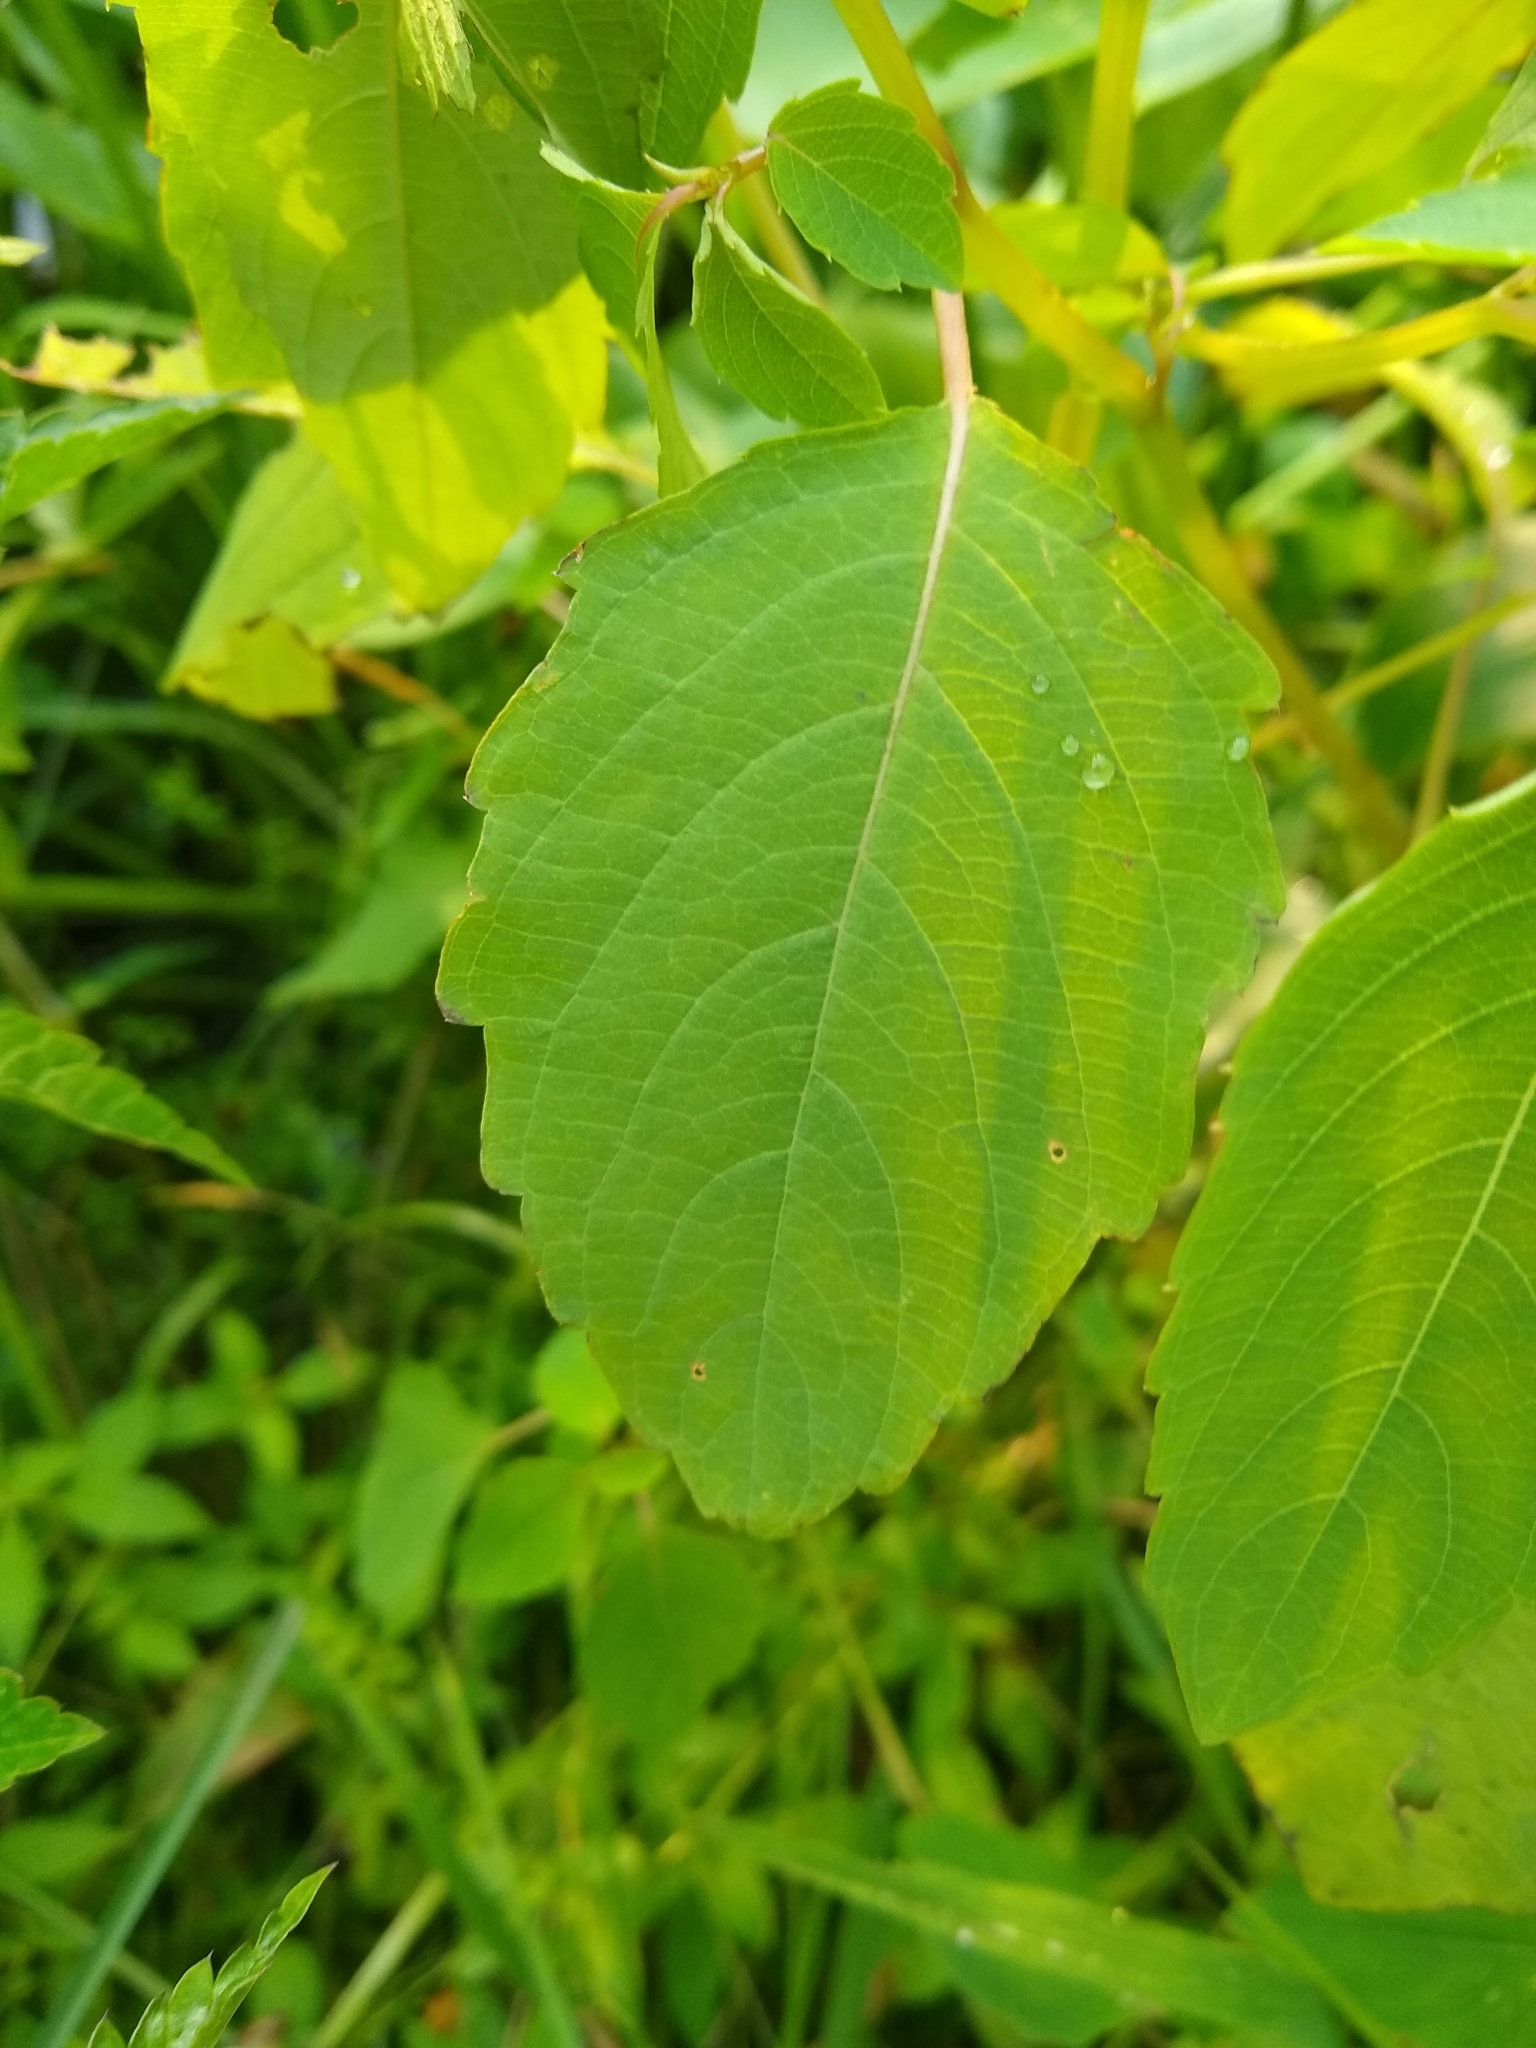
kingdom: Plantae
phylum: Tracheophyta
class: Magnoliopsida
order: Ericales
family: Balsaminaceae
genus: Impatiens
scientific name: Impatiens capensis
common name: Orange balsam
